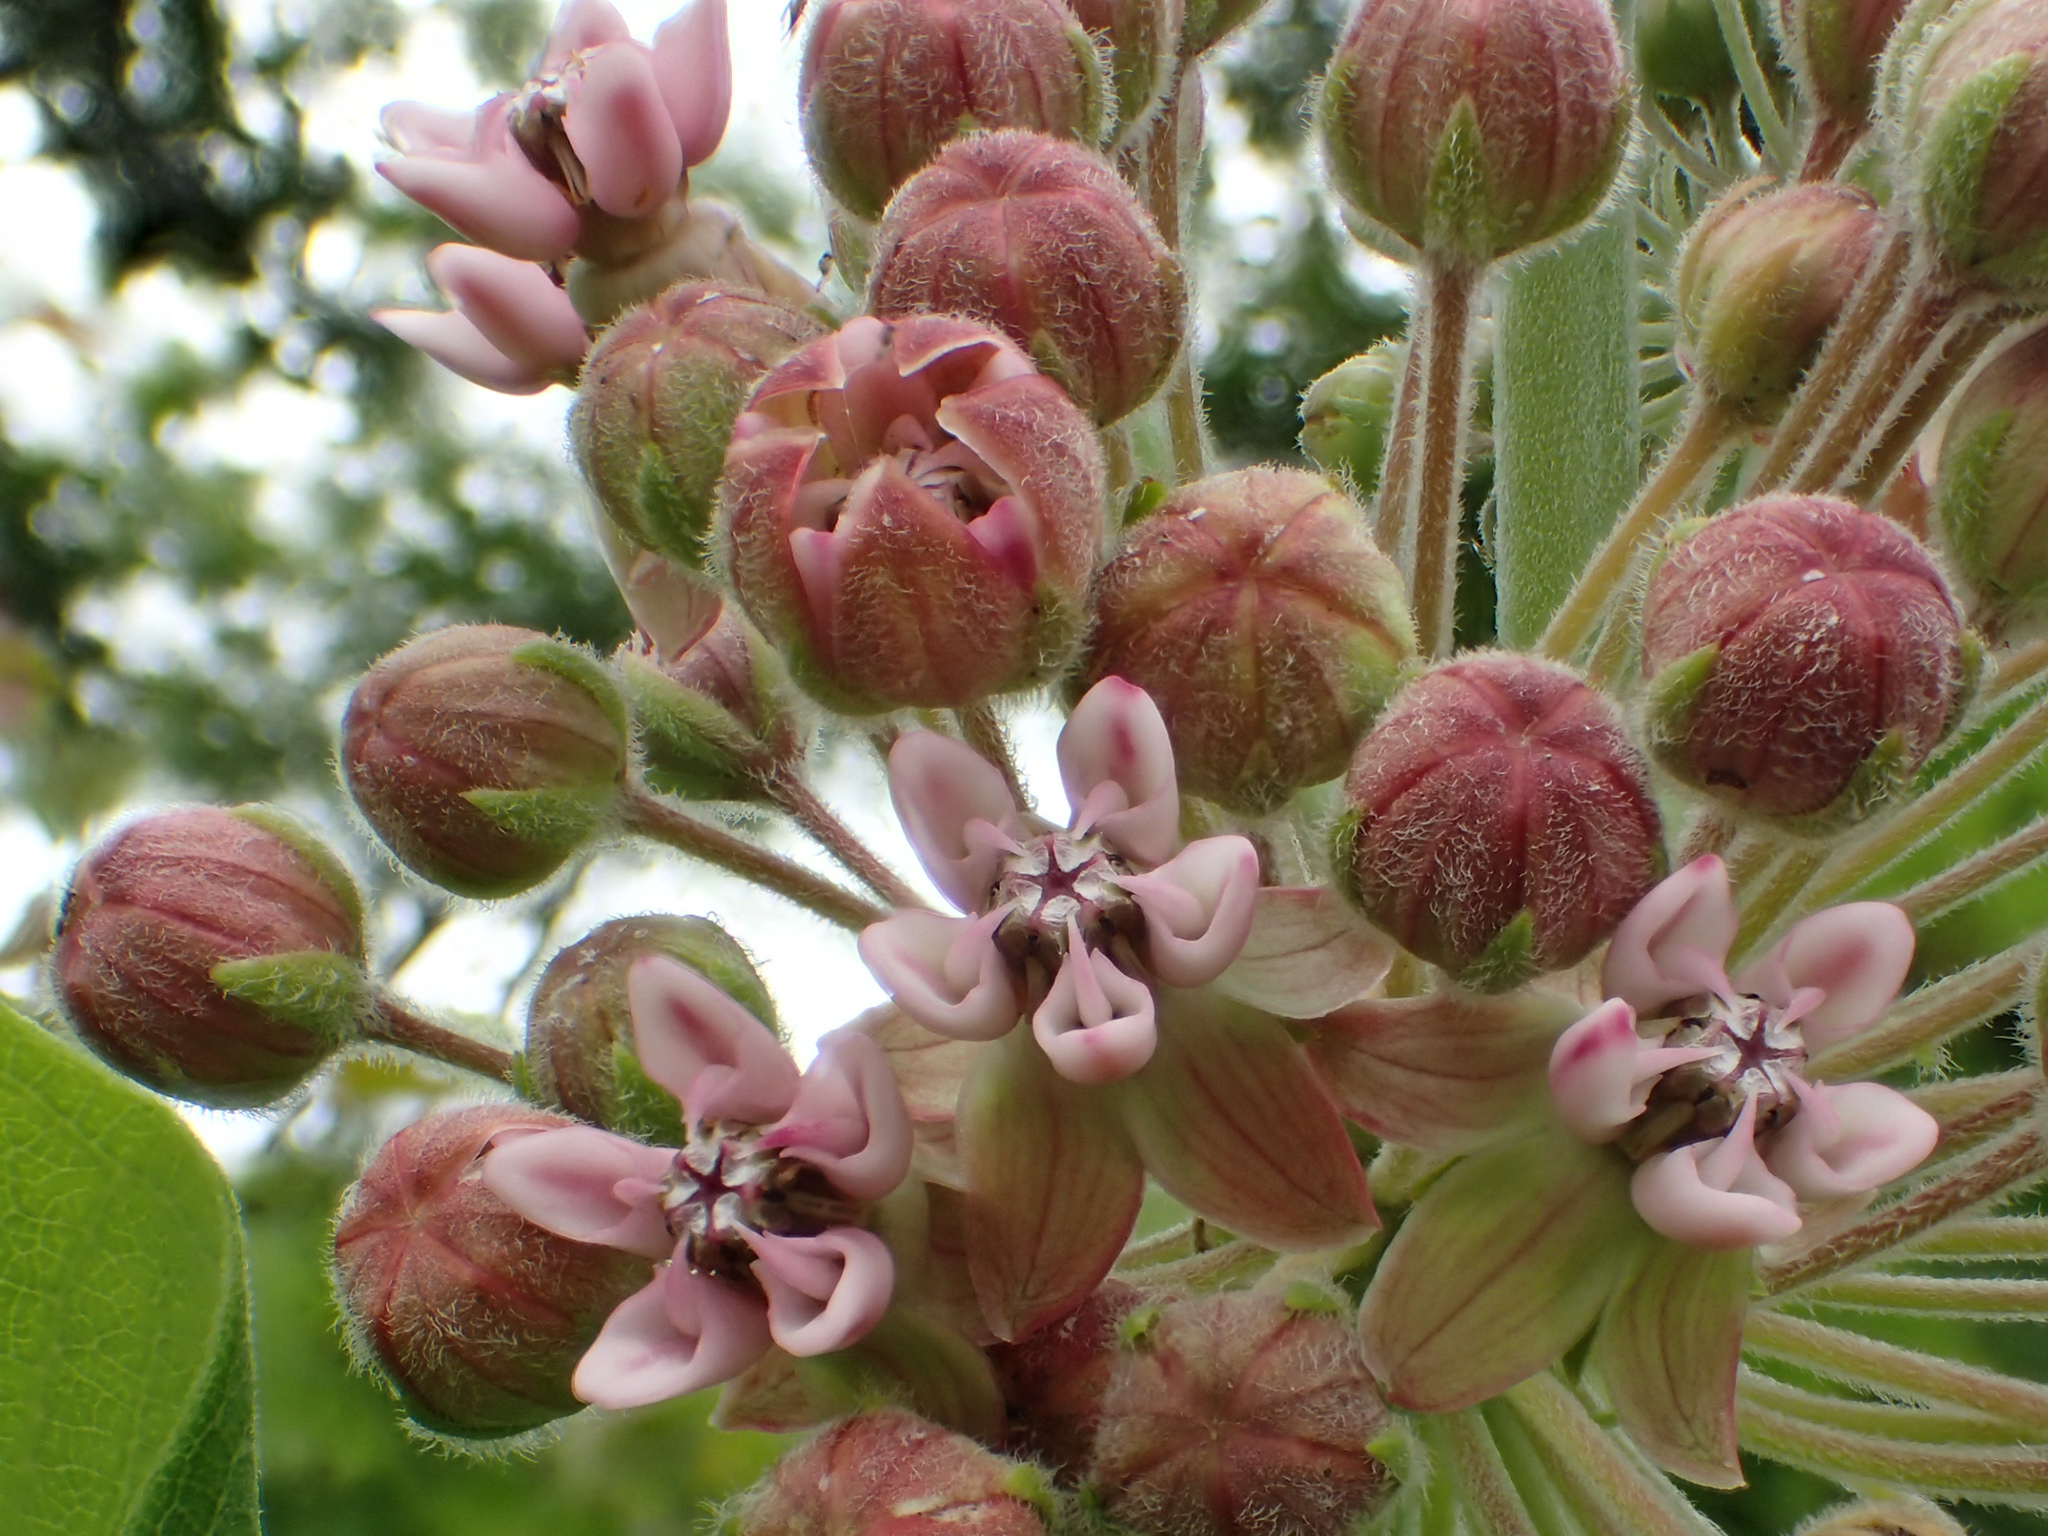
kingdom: Plantae
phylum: Tracheophyta
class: Magnoliopsida
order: Gentianales
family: Apocynaceae
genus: Asclepias
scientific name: Asclepias syriaca
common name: Common milkweed
